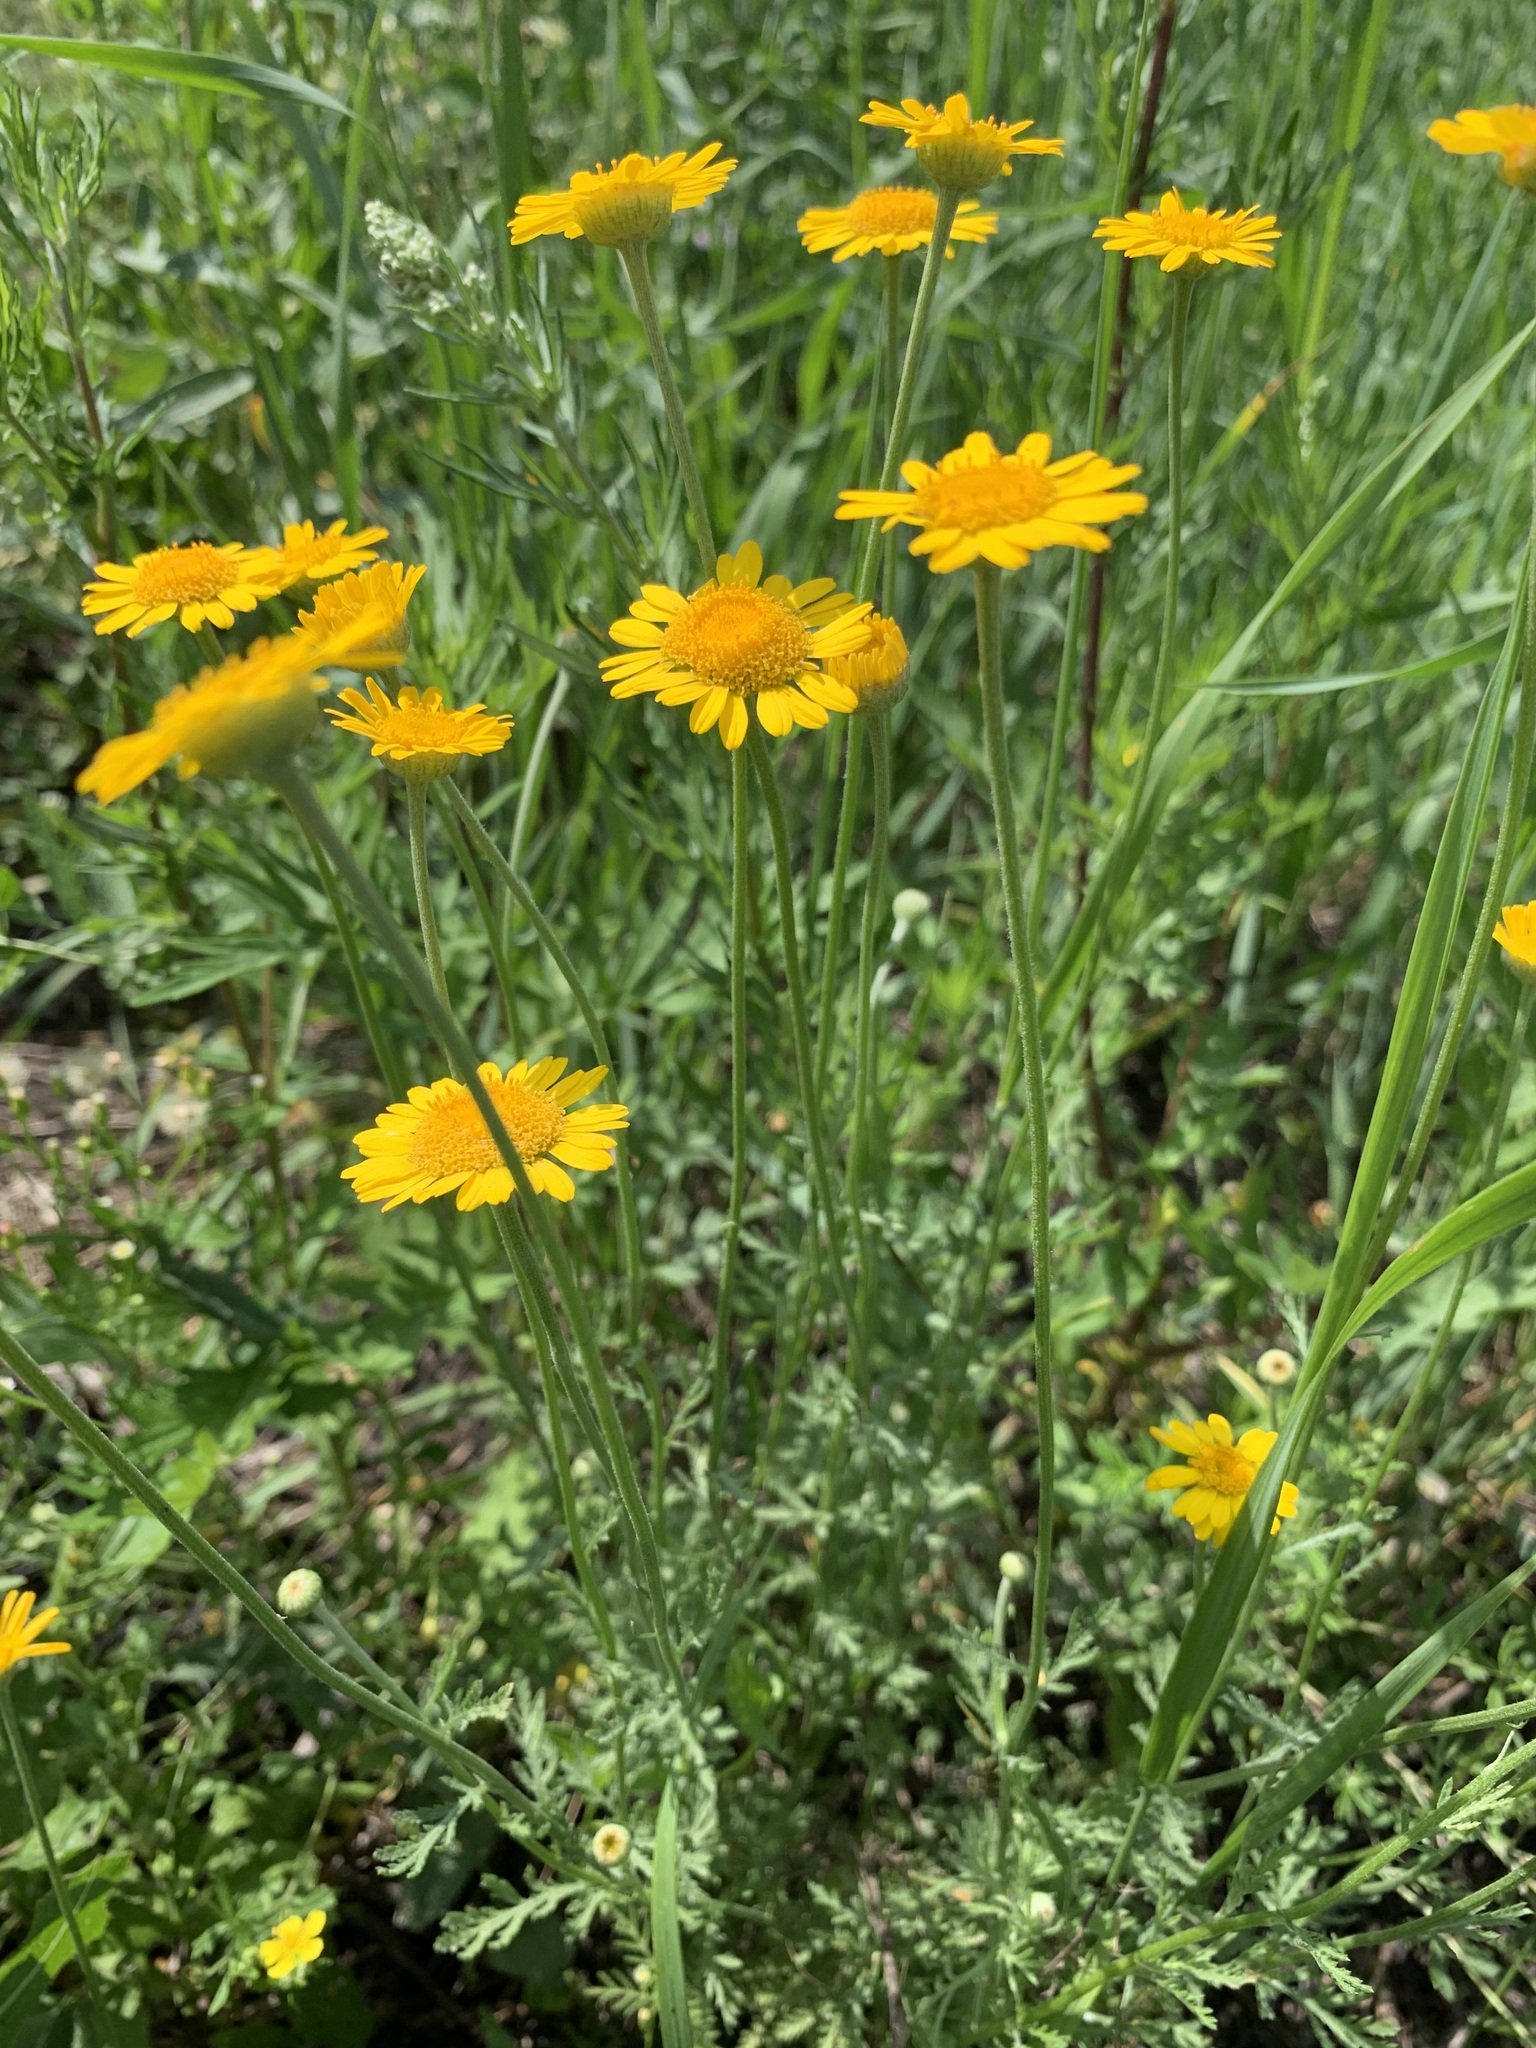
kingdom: Plantae
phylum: Tracheophyta
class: Magnoliopsida
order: Asterales
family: Asteraceae
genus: Cota
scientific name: Cota tinctoria
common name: Golden chamomile
